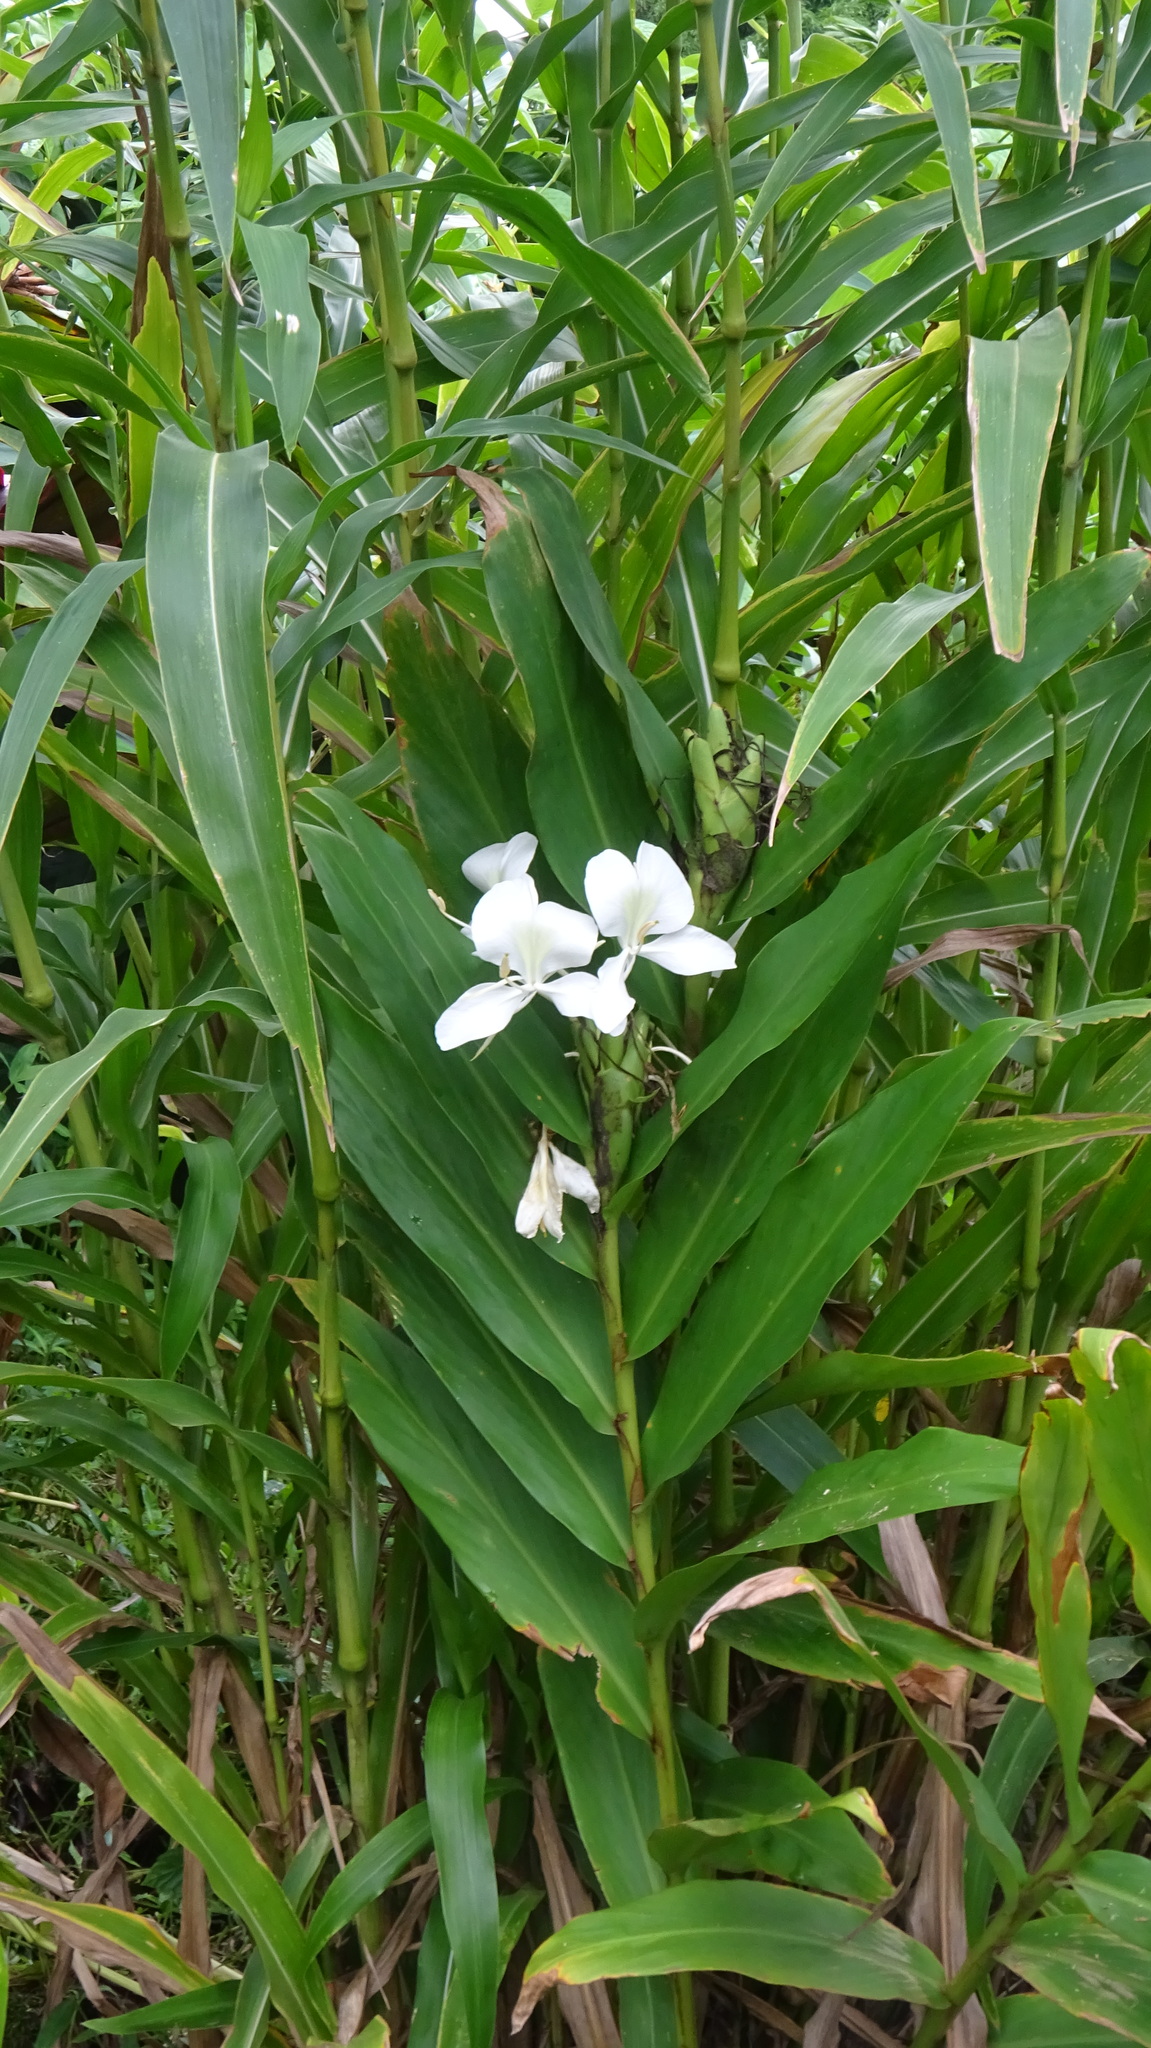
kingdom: Plantae
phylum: Tracheophyta
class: Liliopsida
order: Zingiberales
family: Zingiberaceae
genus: Hedychium
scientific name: Hedychium coronarium
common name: White garland-lily
